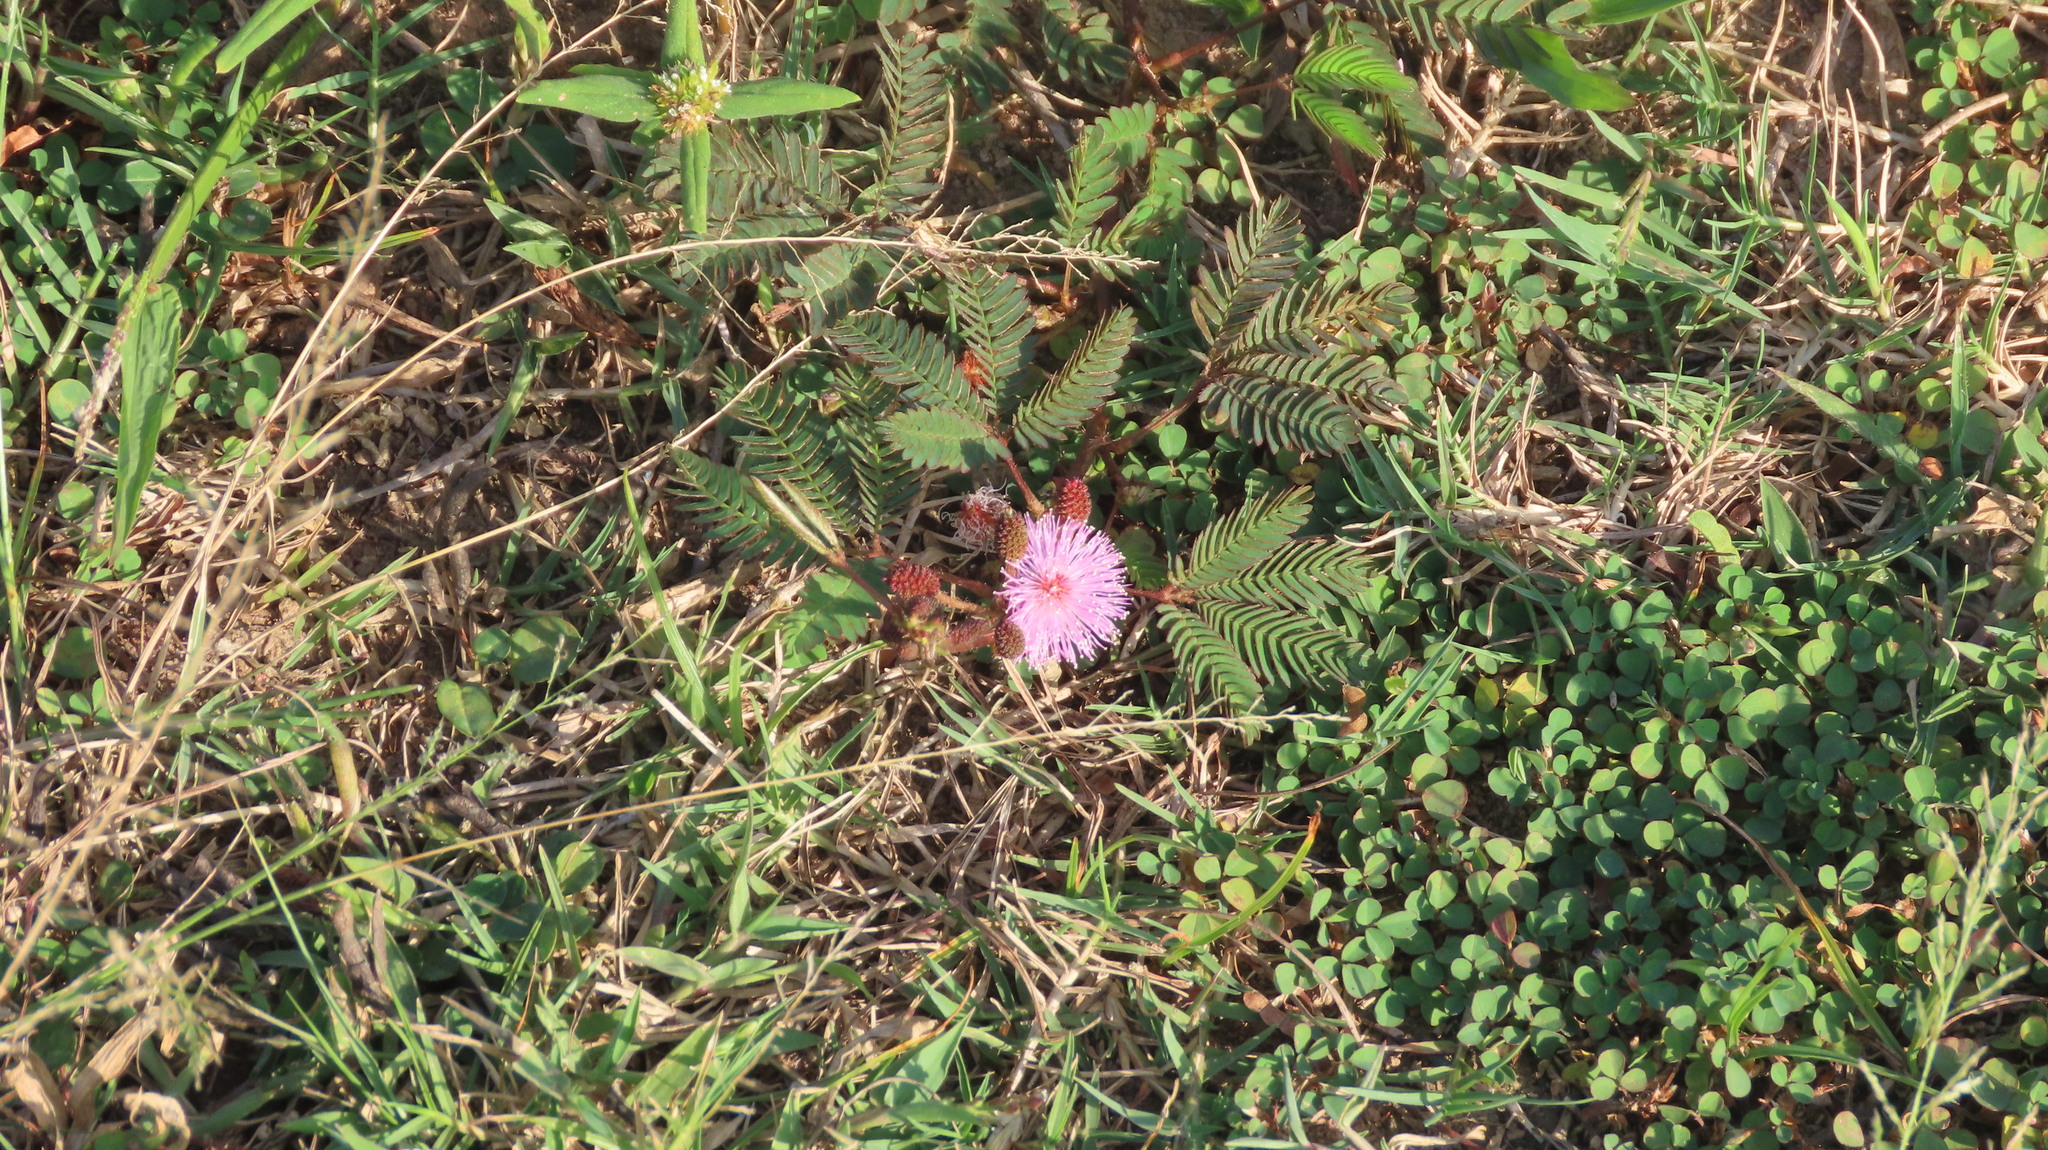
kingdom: Plantae
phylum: Tracheophyta
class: Magnoliopsida
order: Fabales
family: Fabaceae
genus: Mimosa
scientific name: Mimosa pudica
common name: Sensitive plant
